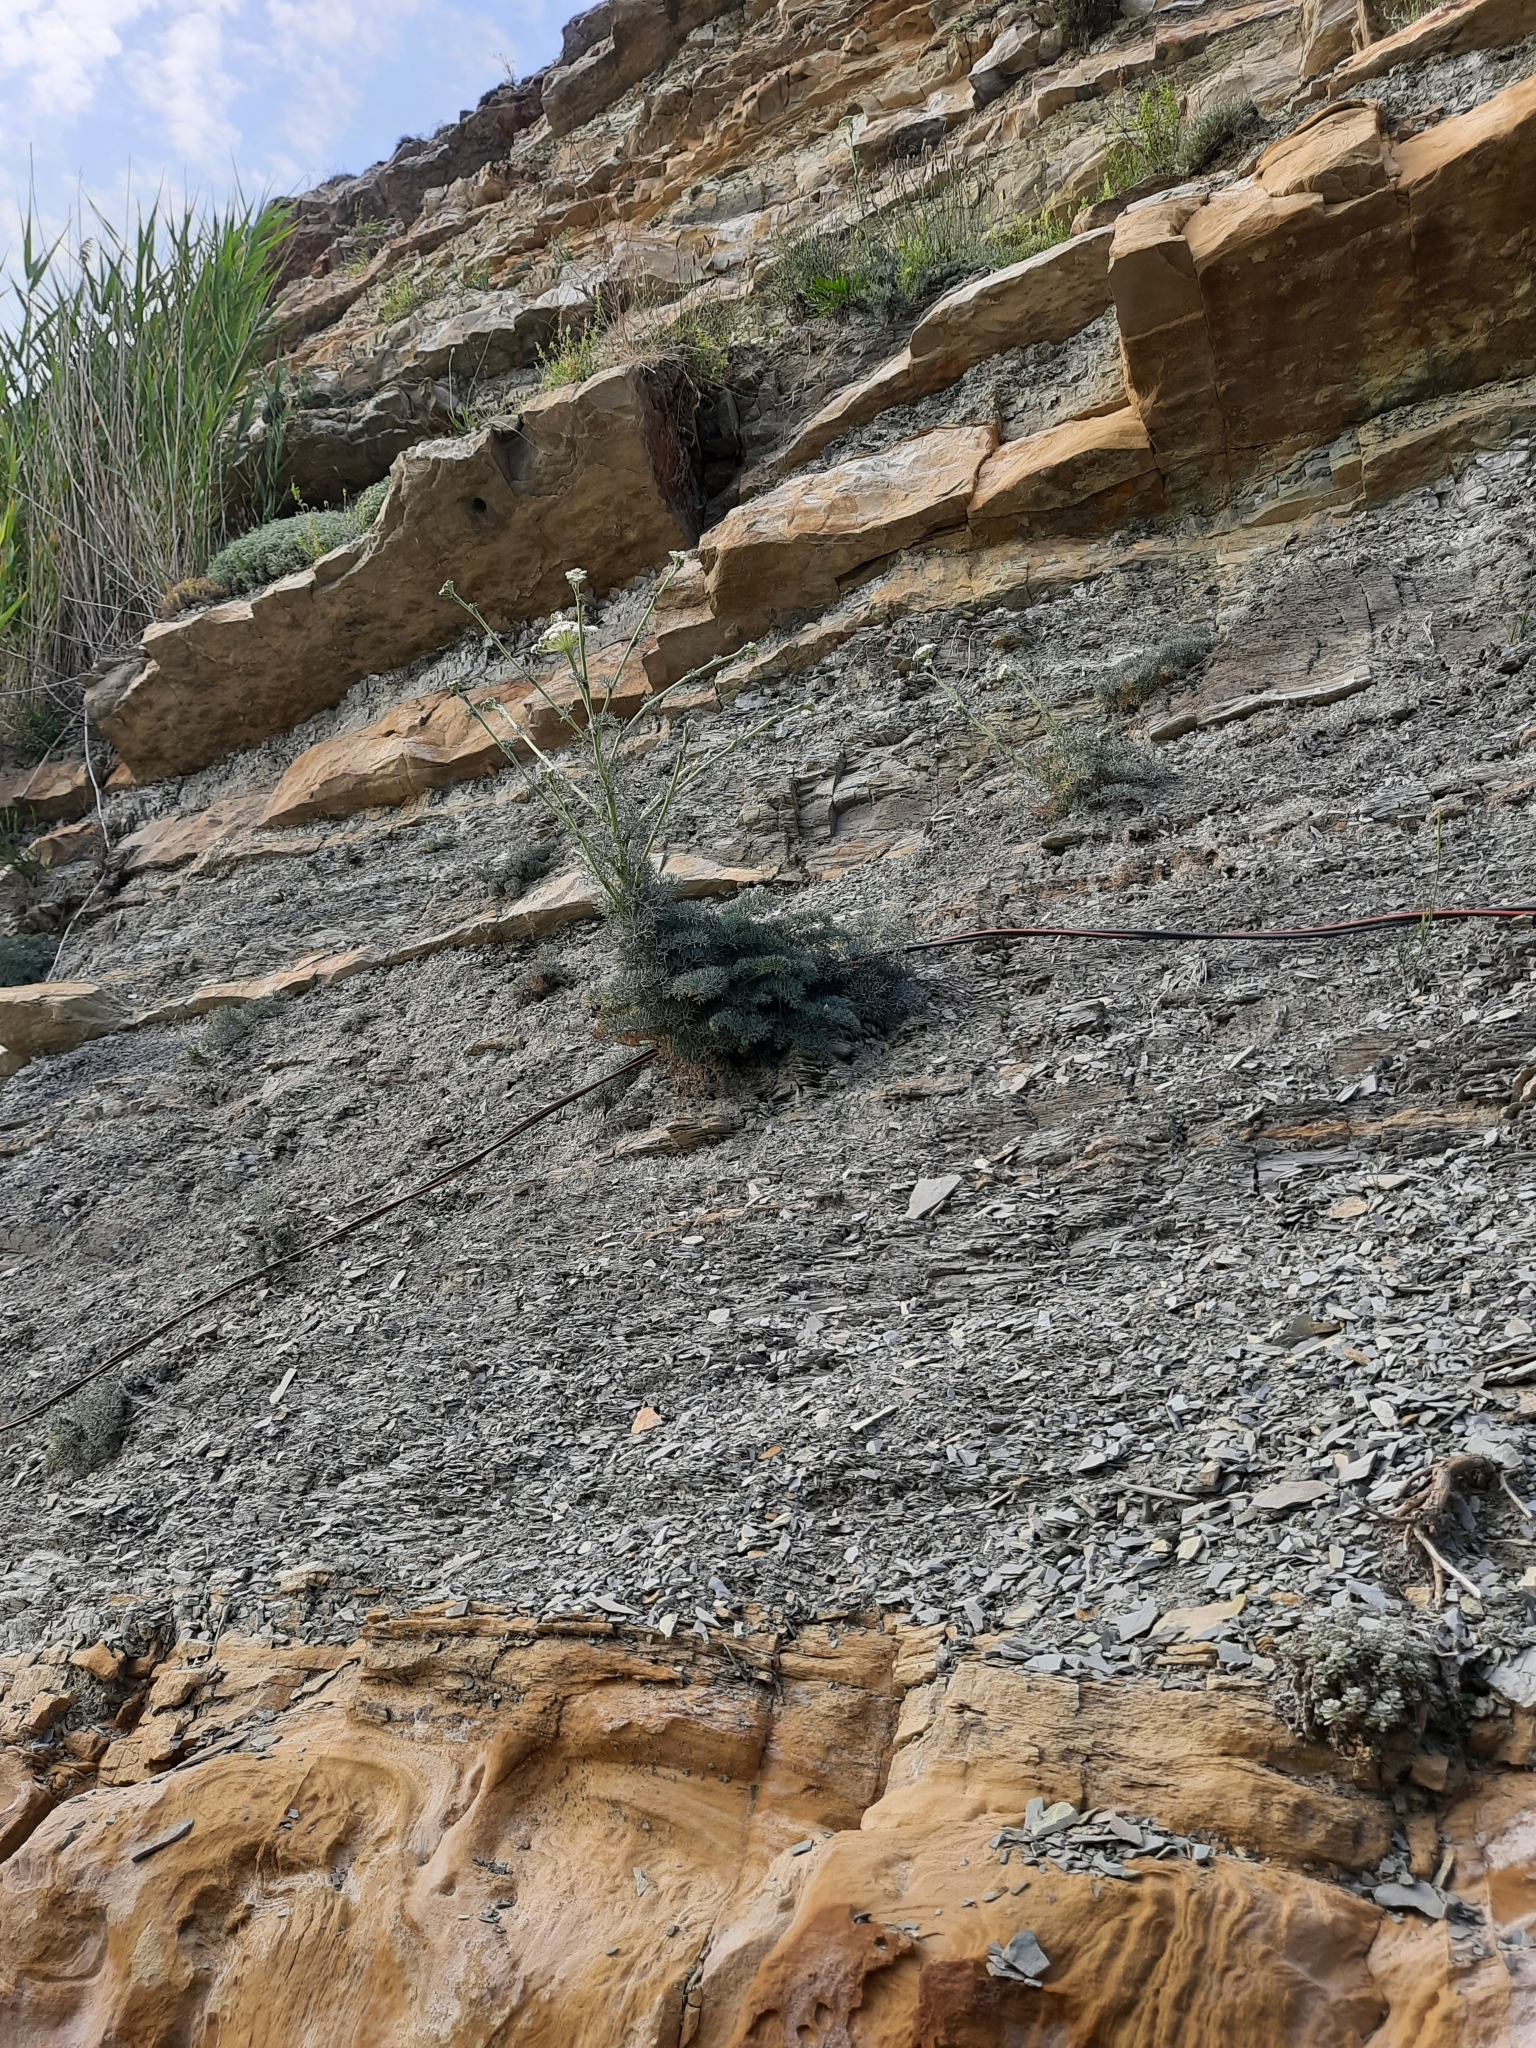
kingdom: Plantae
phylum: Tracheophyta
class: Magnoliopsida
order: Apiales
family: Apiaceae
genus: Seseli
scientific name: Seseli ponticum
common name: Pontic seseli
